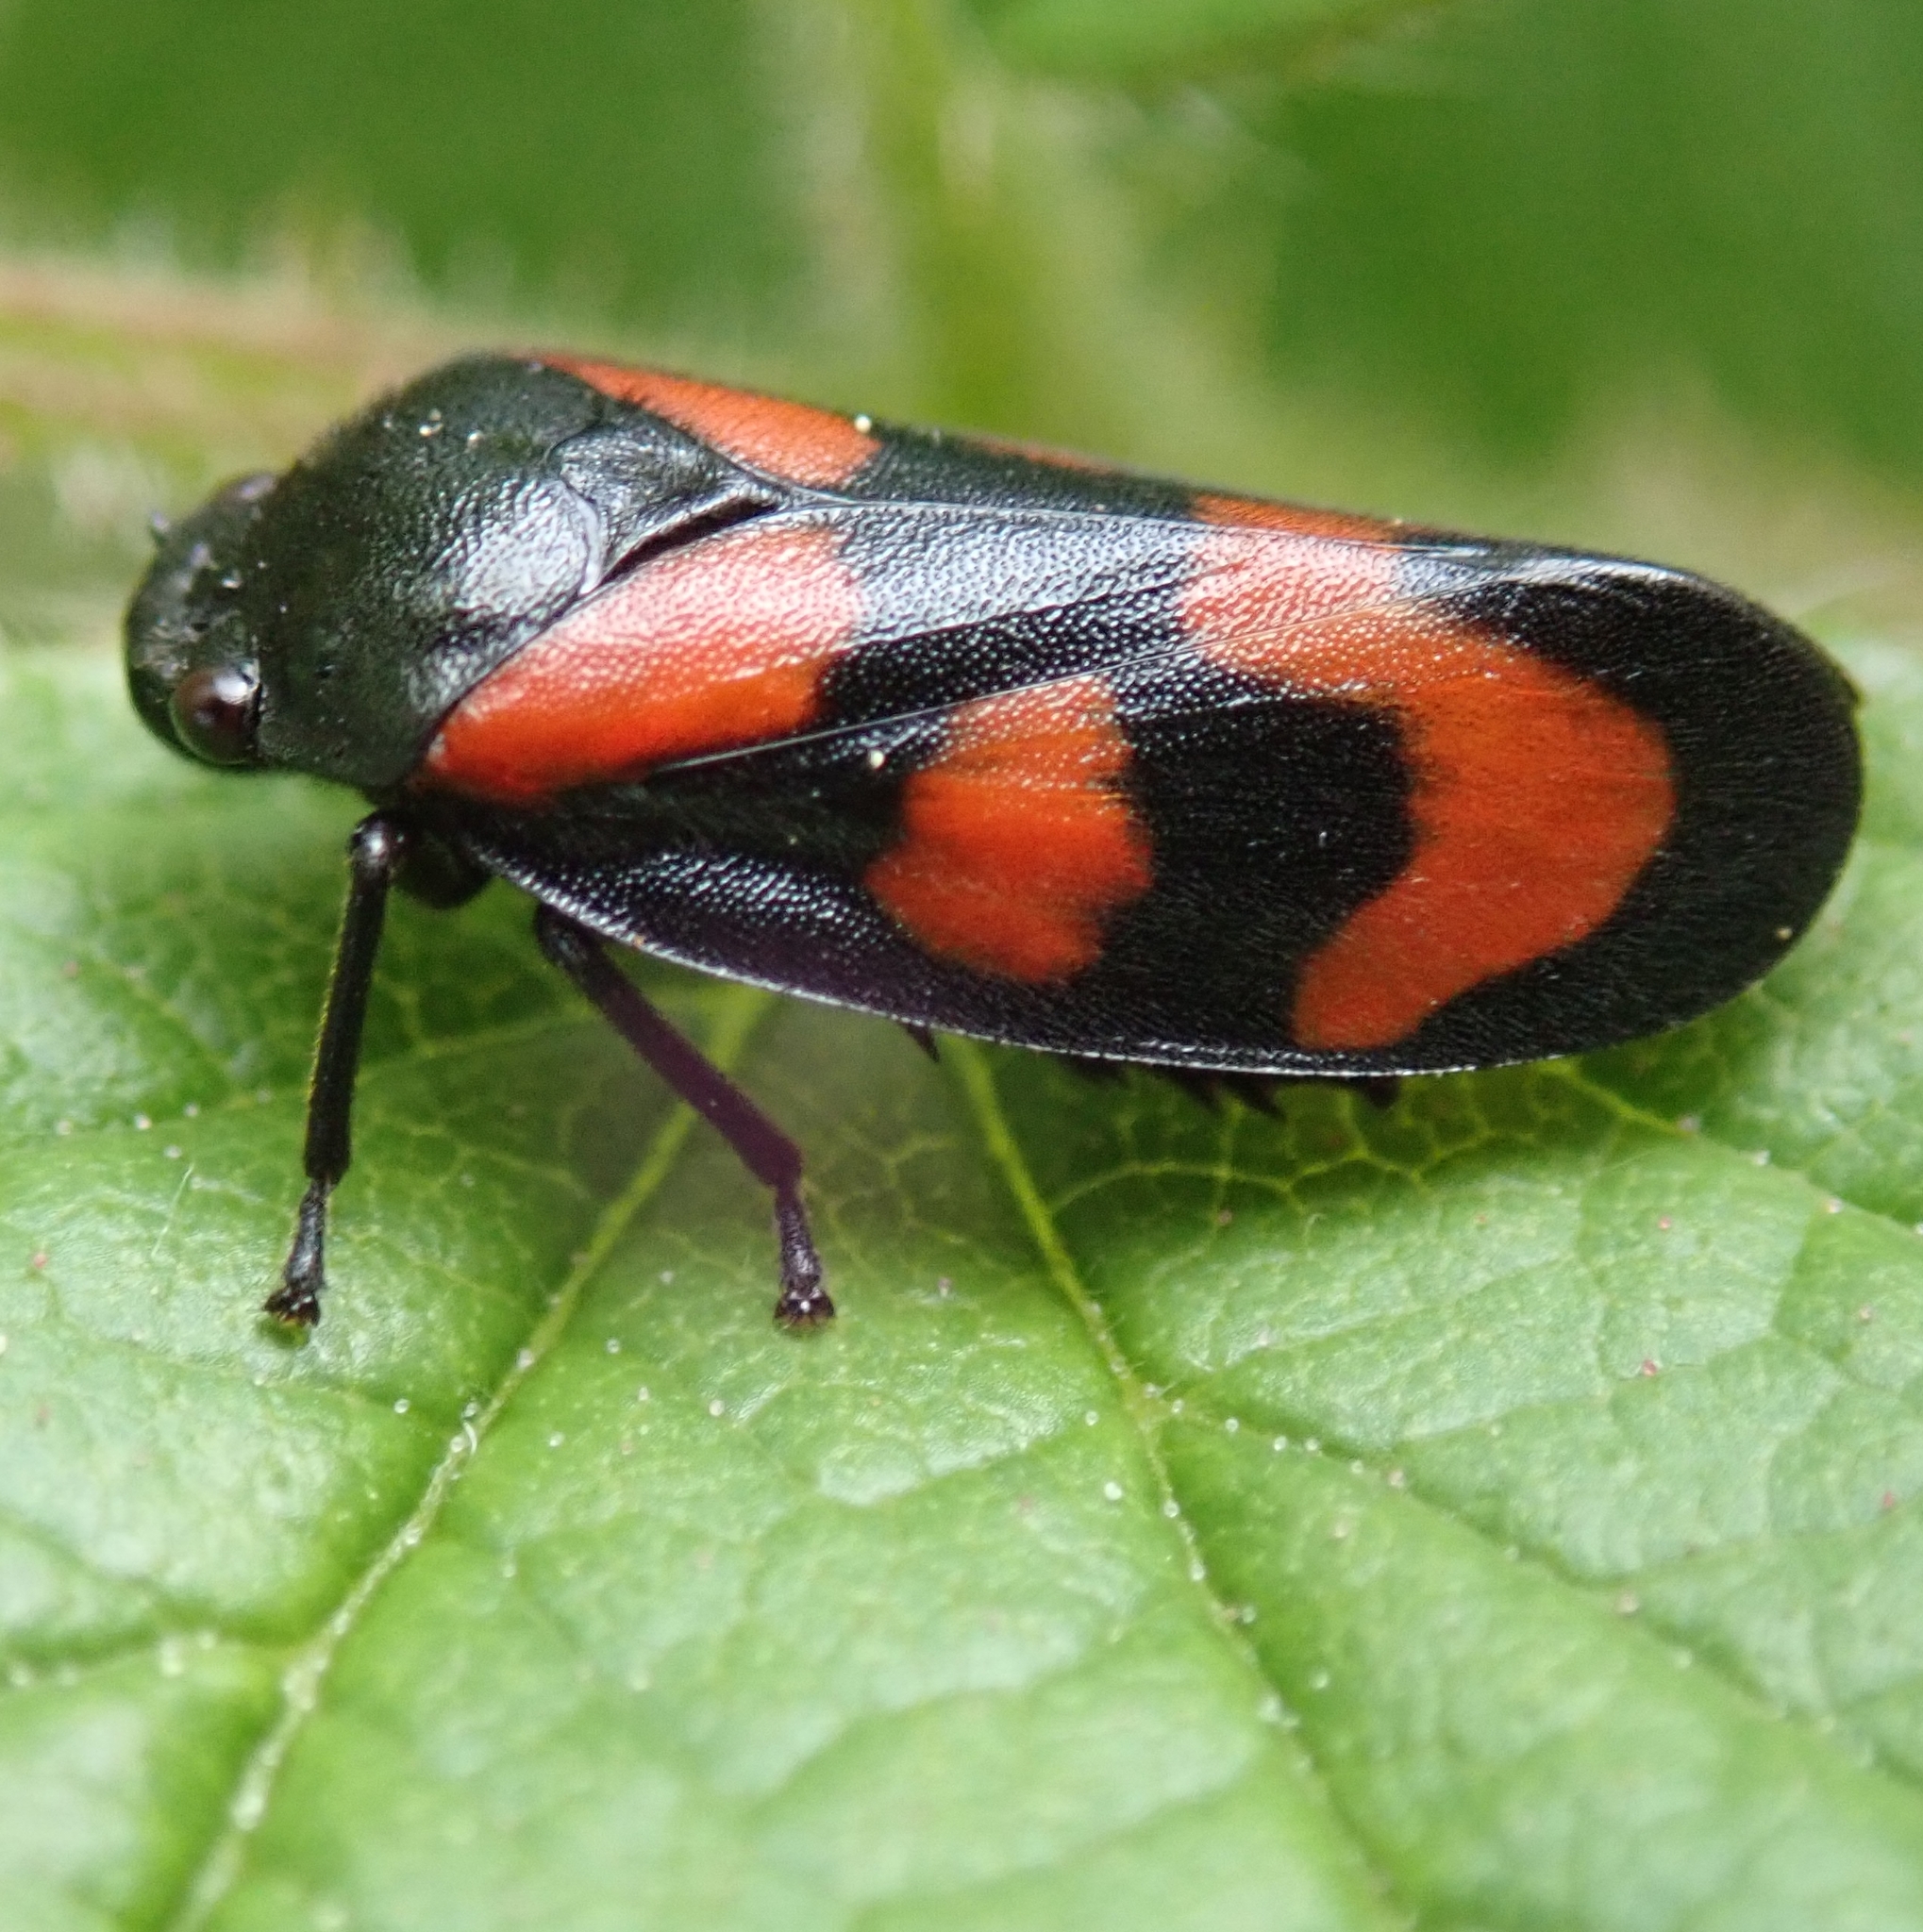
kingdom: Animalia
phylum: Arthropoda
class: Insecta
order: Hemiptera
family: Cercopidae
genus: Cercopis
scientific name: Cercopis vulnerata
